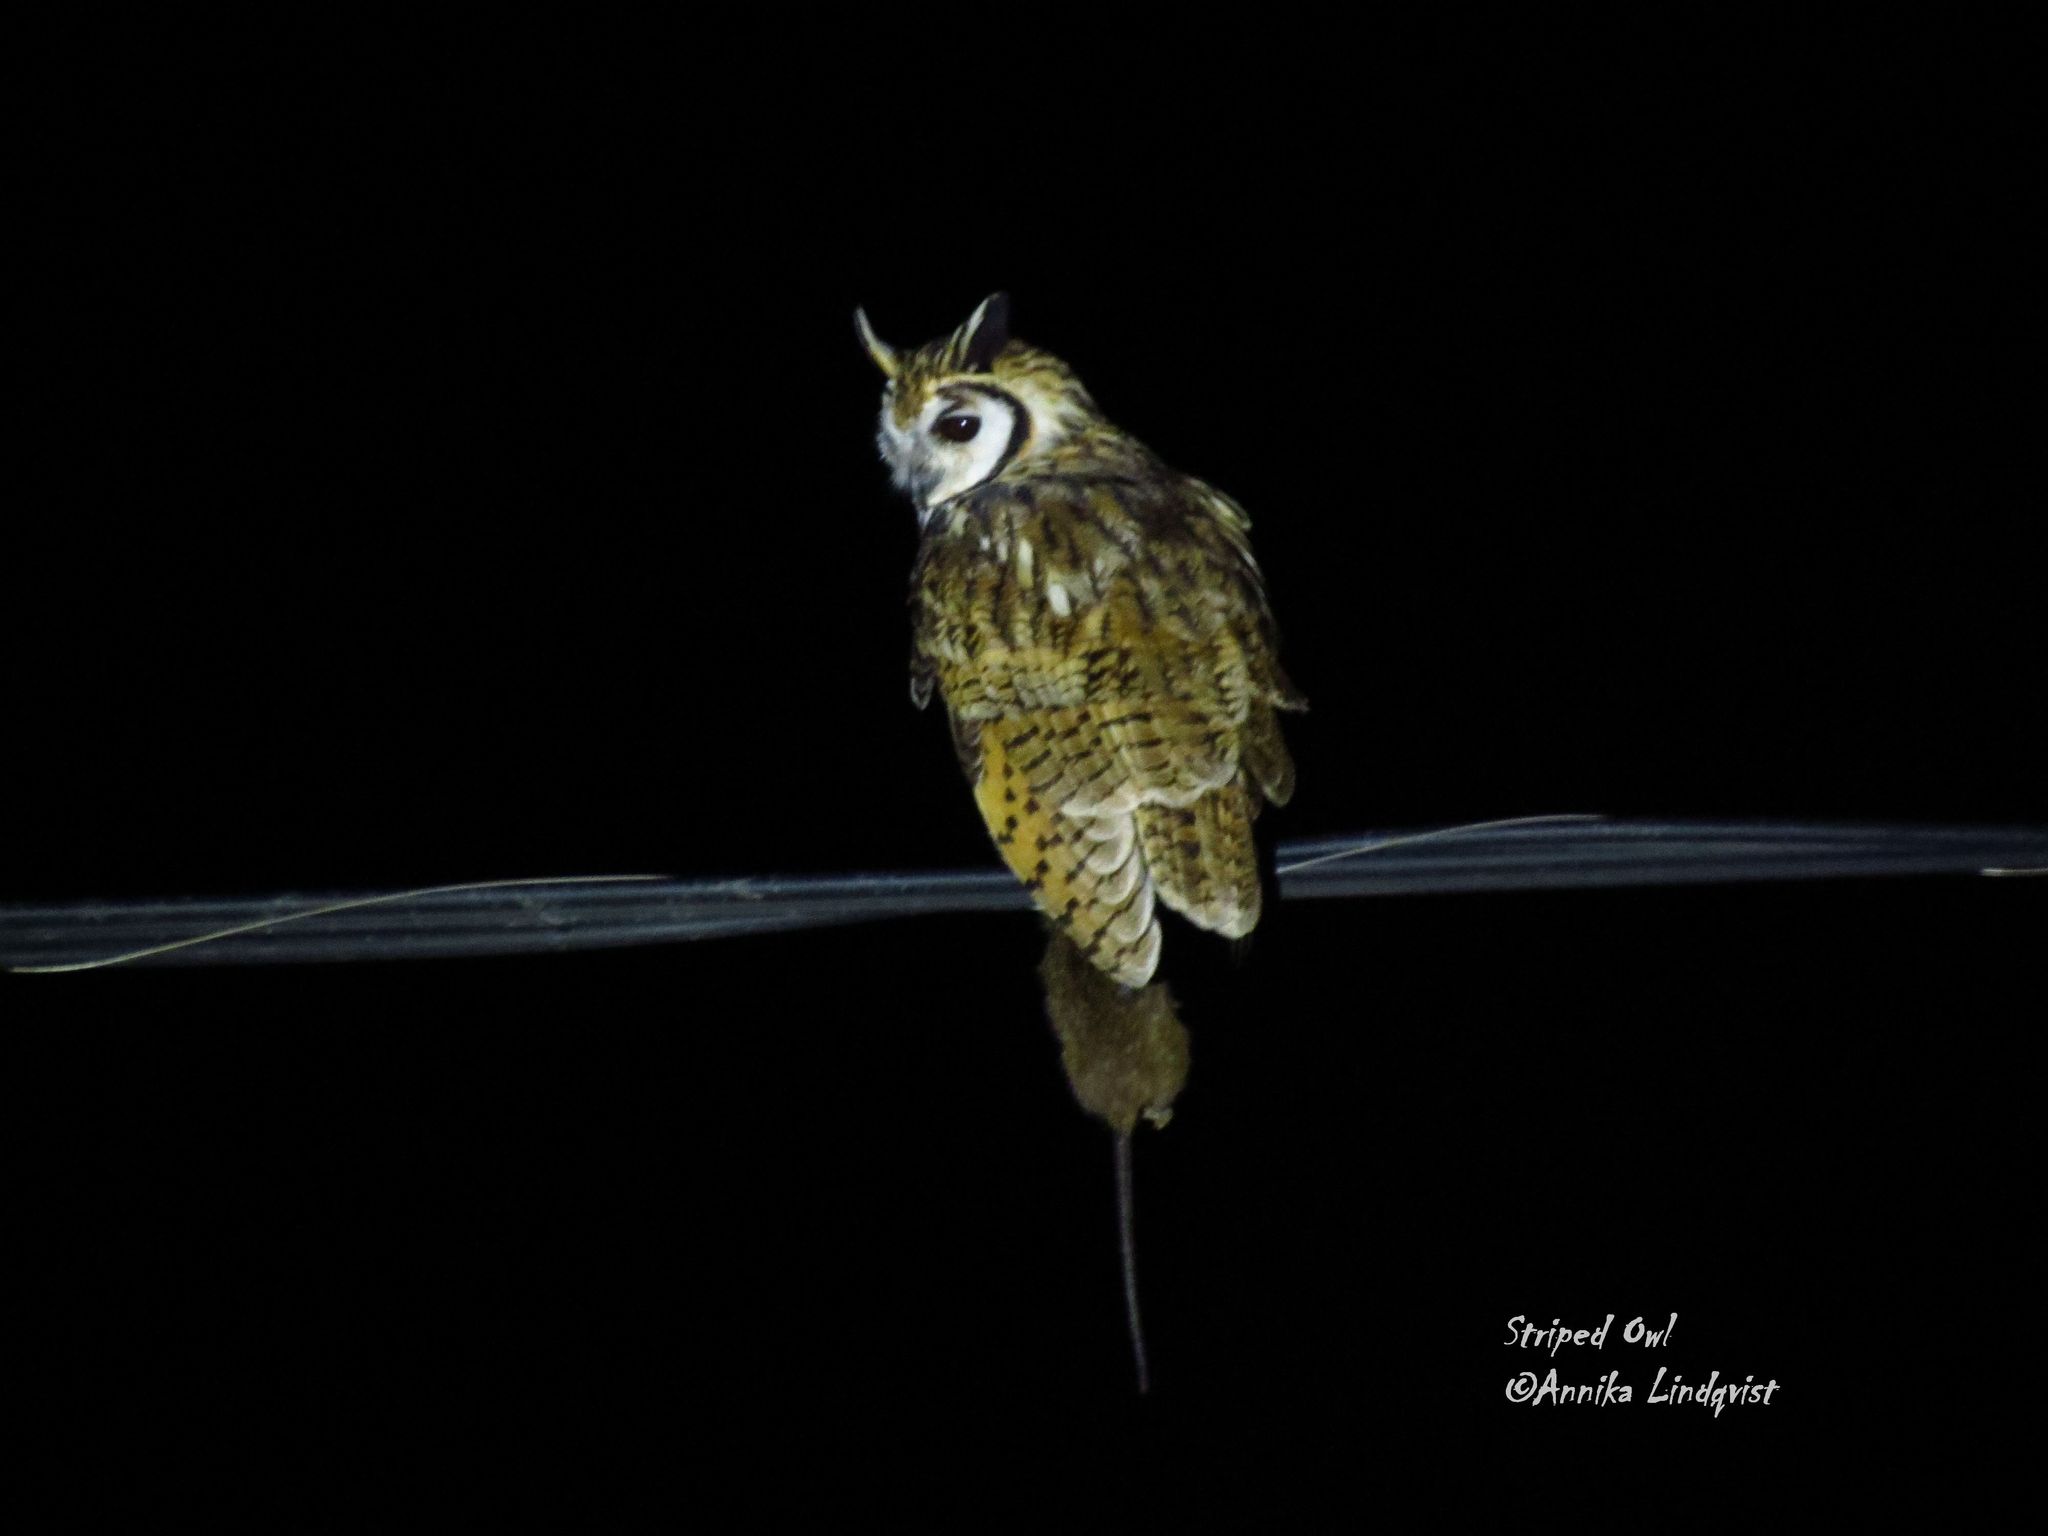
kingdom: Animalia
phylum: Chordata
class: Aves
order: Strigiformes
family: Strigidae
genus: Pseudoscops
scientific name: Pseudoscops clamator
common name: Striped owl
